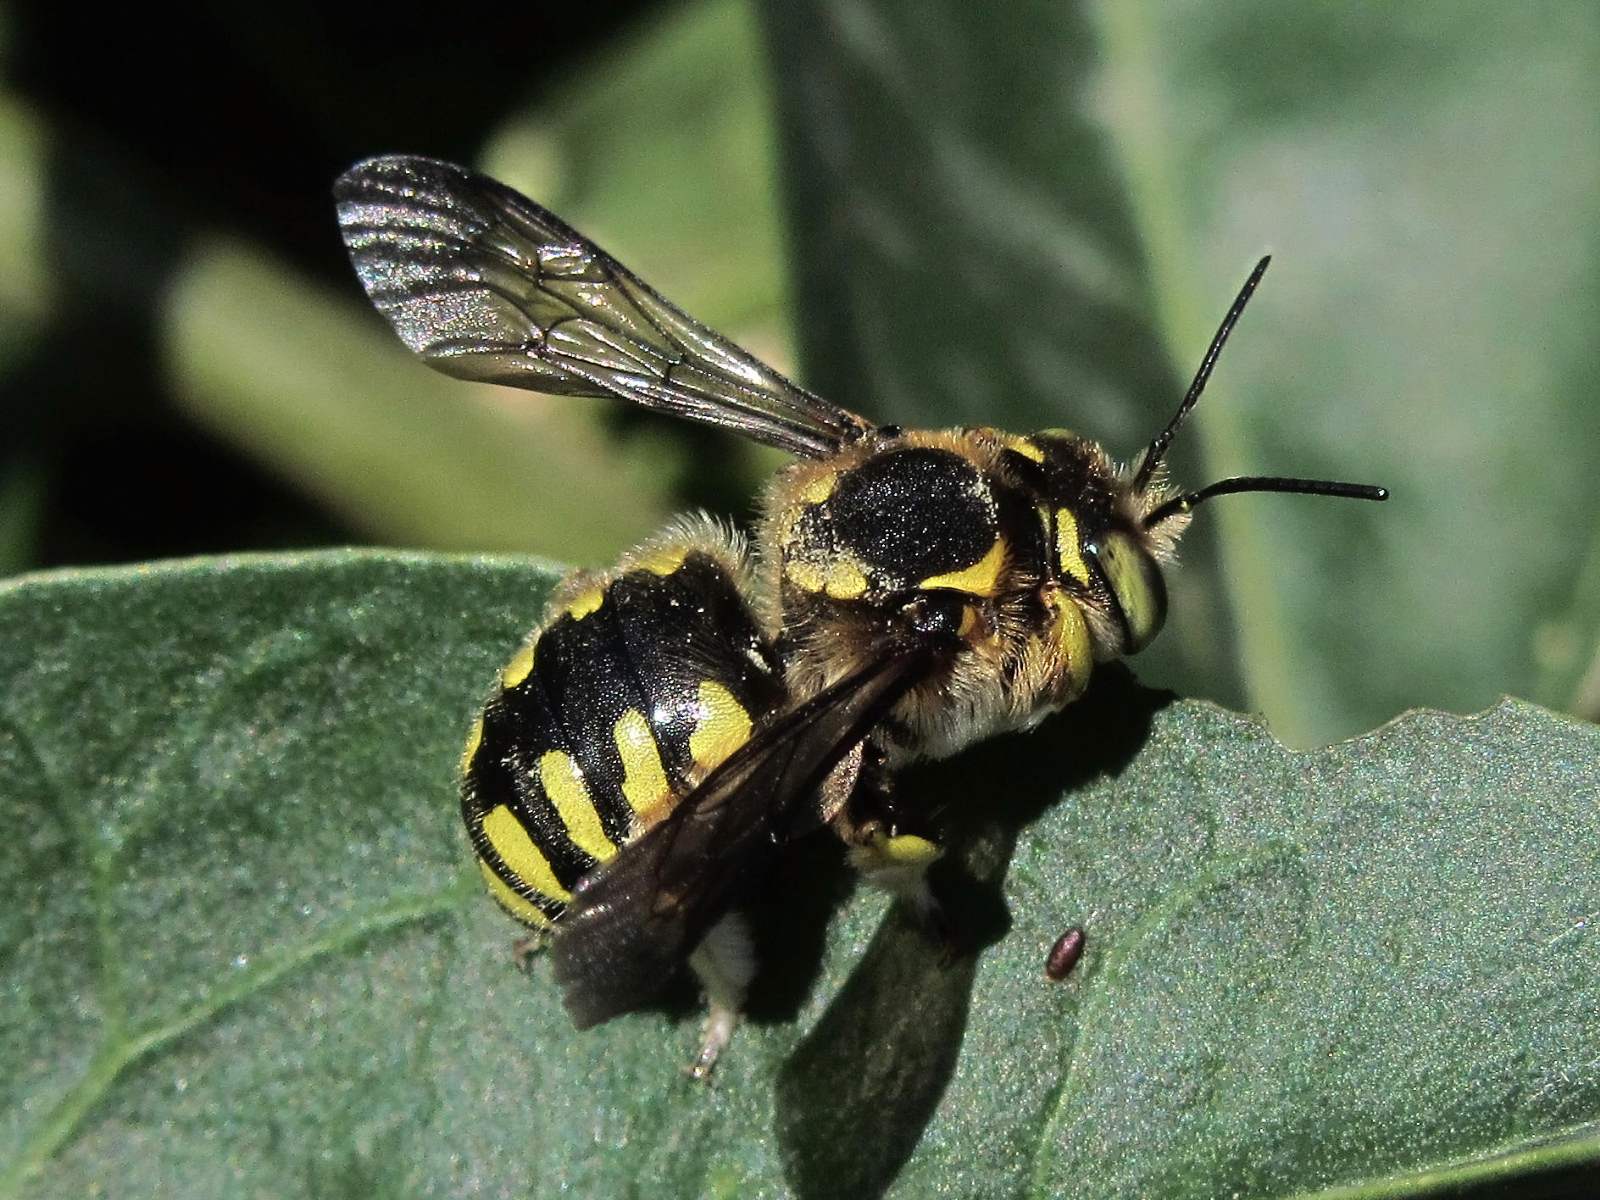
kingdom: Animalia
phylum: Arthropoda
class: Insecta
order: Hymenoptera
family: Megachilidae
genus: Anthidium
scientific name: Anthidium florentinum
